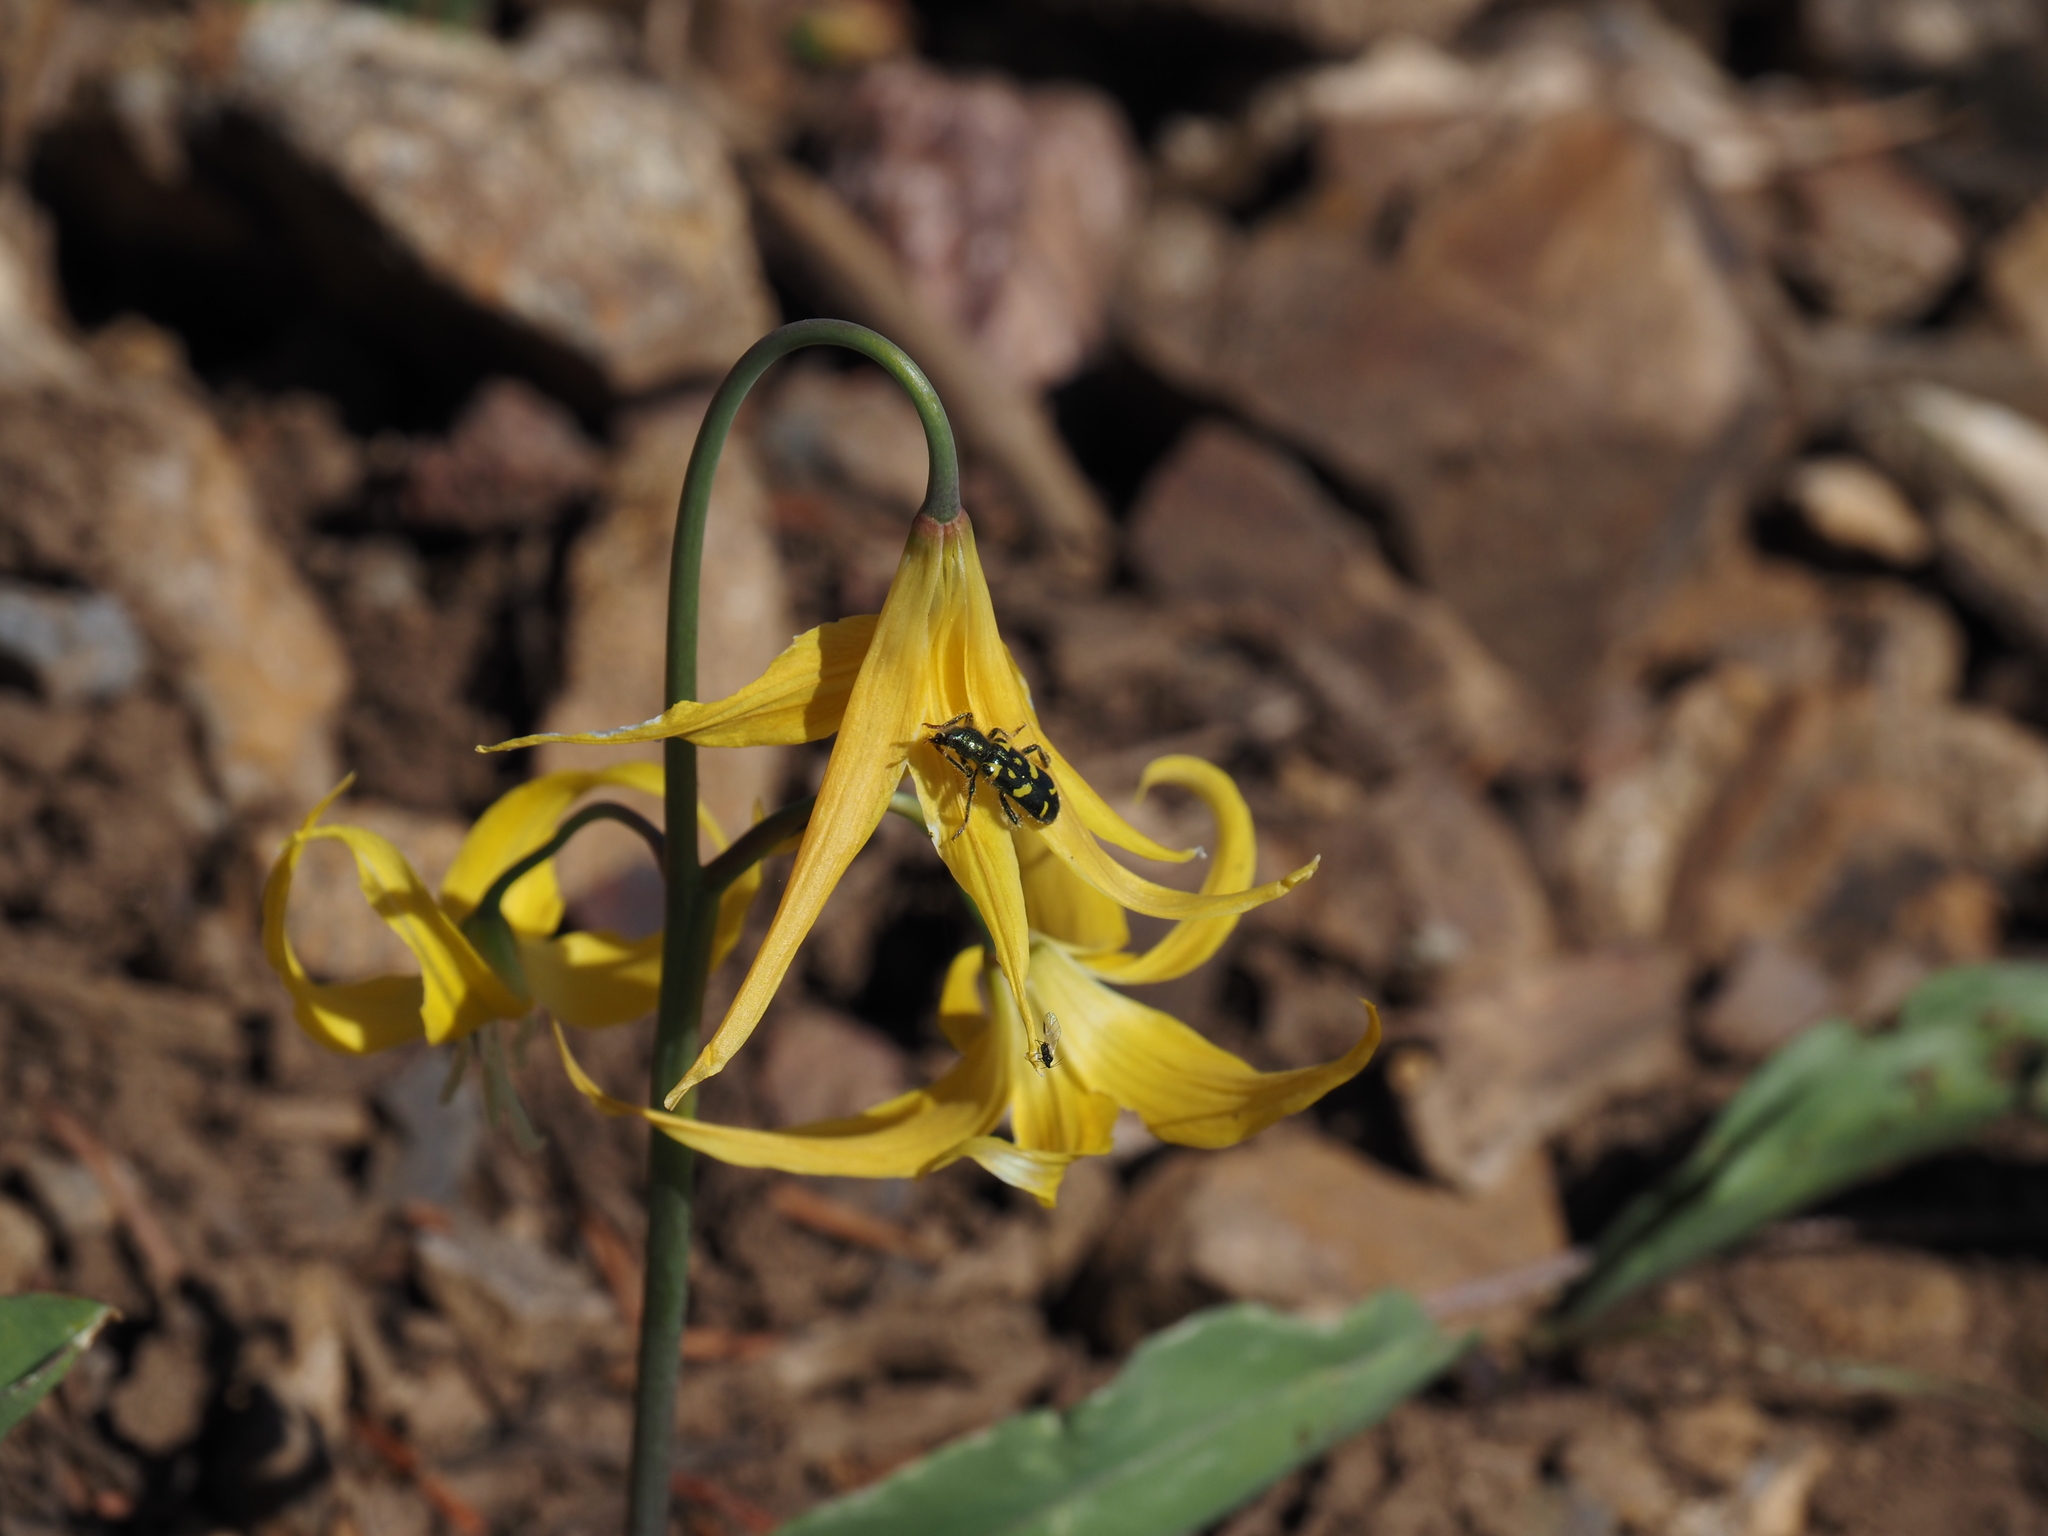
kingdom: Animalia
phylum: Arthropoda
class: Insecta
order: Coleoptera
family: Cleridae
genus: Trichodes
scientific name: Trichodes ornatus
